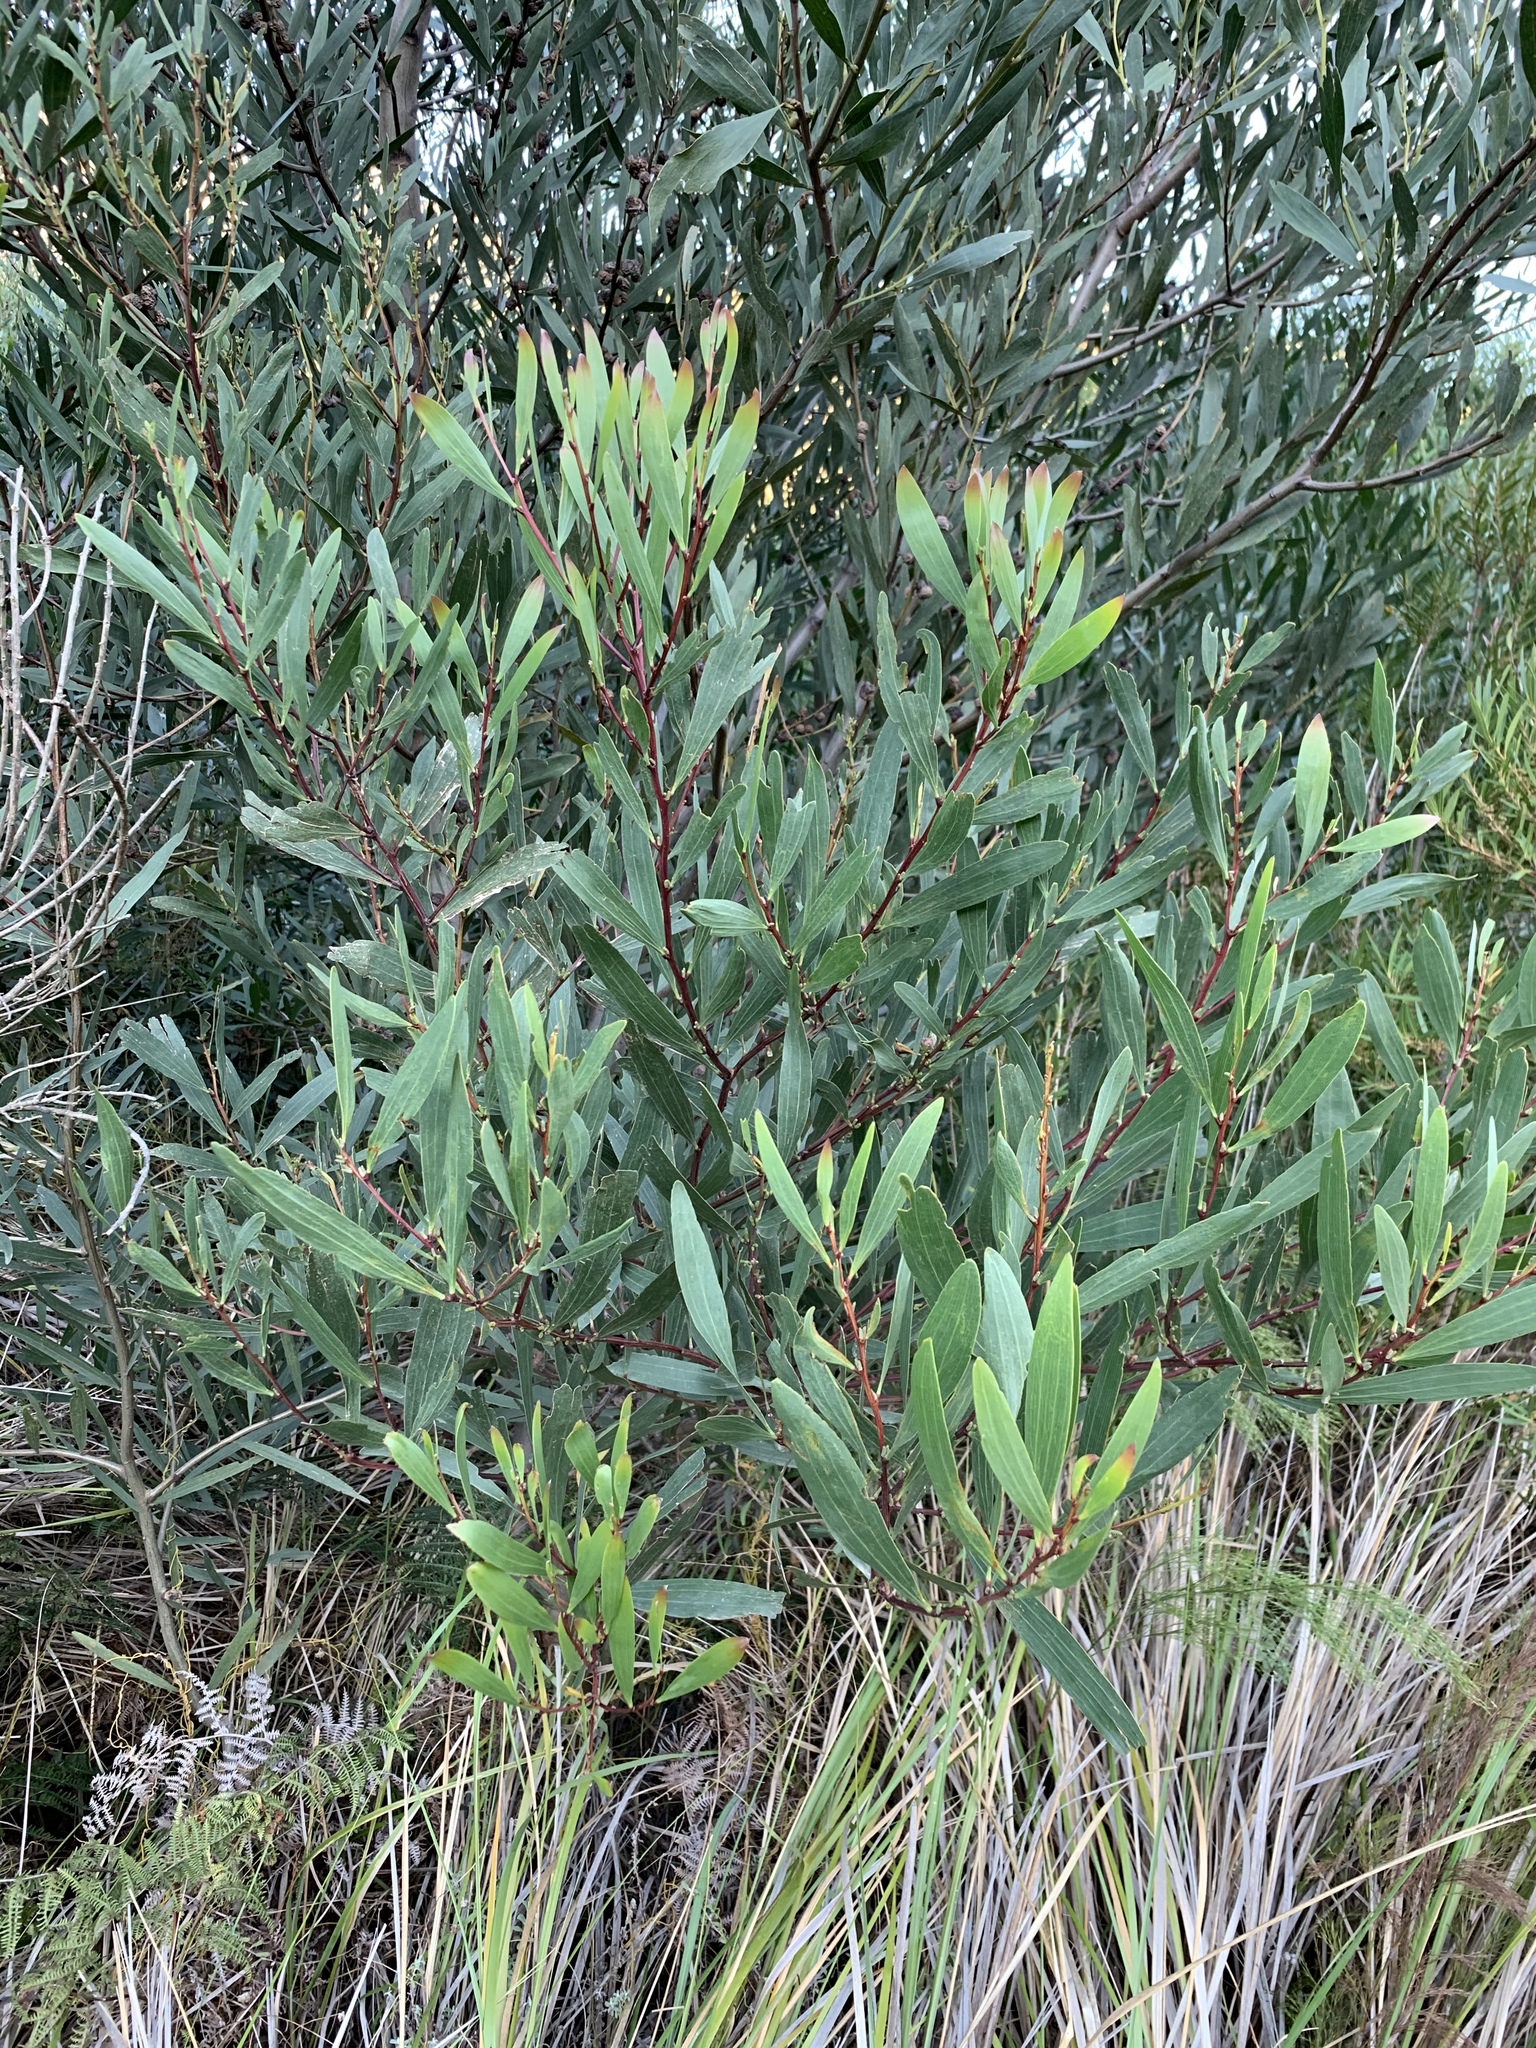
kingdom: Plantae
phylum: Tracheophyta
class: Magnoliopsida
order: Fabales
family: Fabaceae
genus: Acacia
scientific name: Acacia longifolia
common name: Sydney golden wattle
